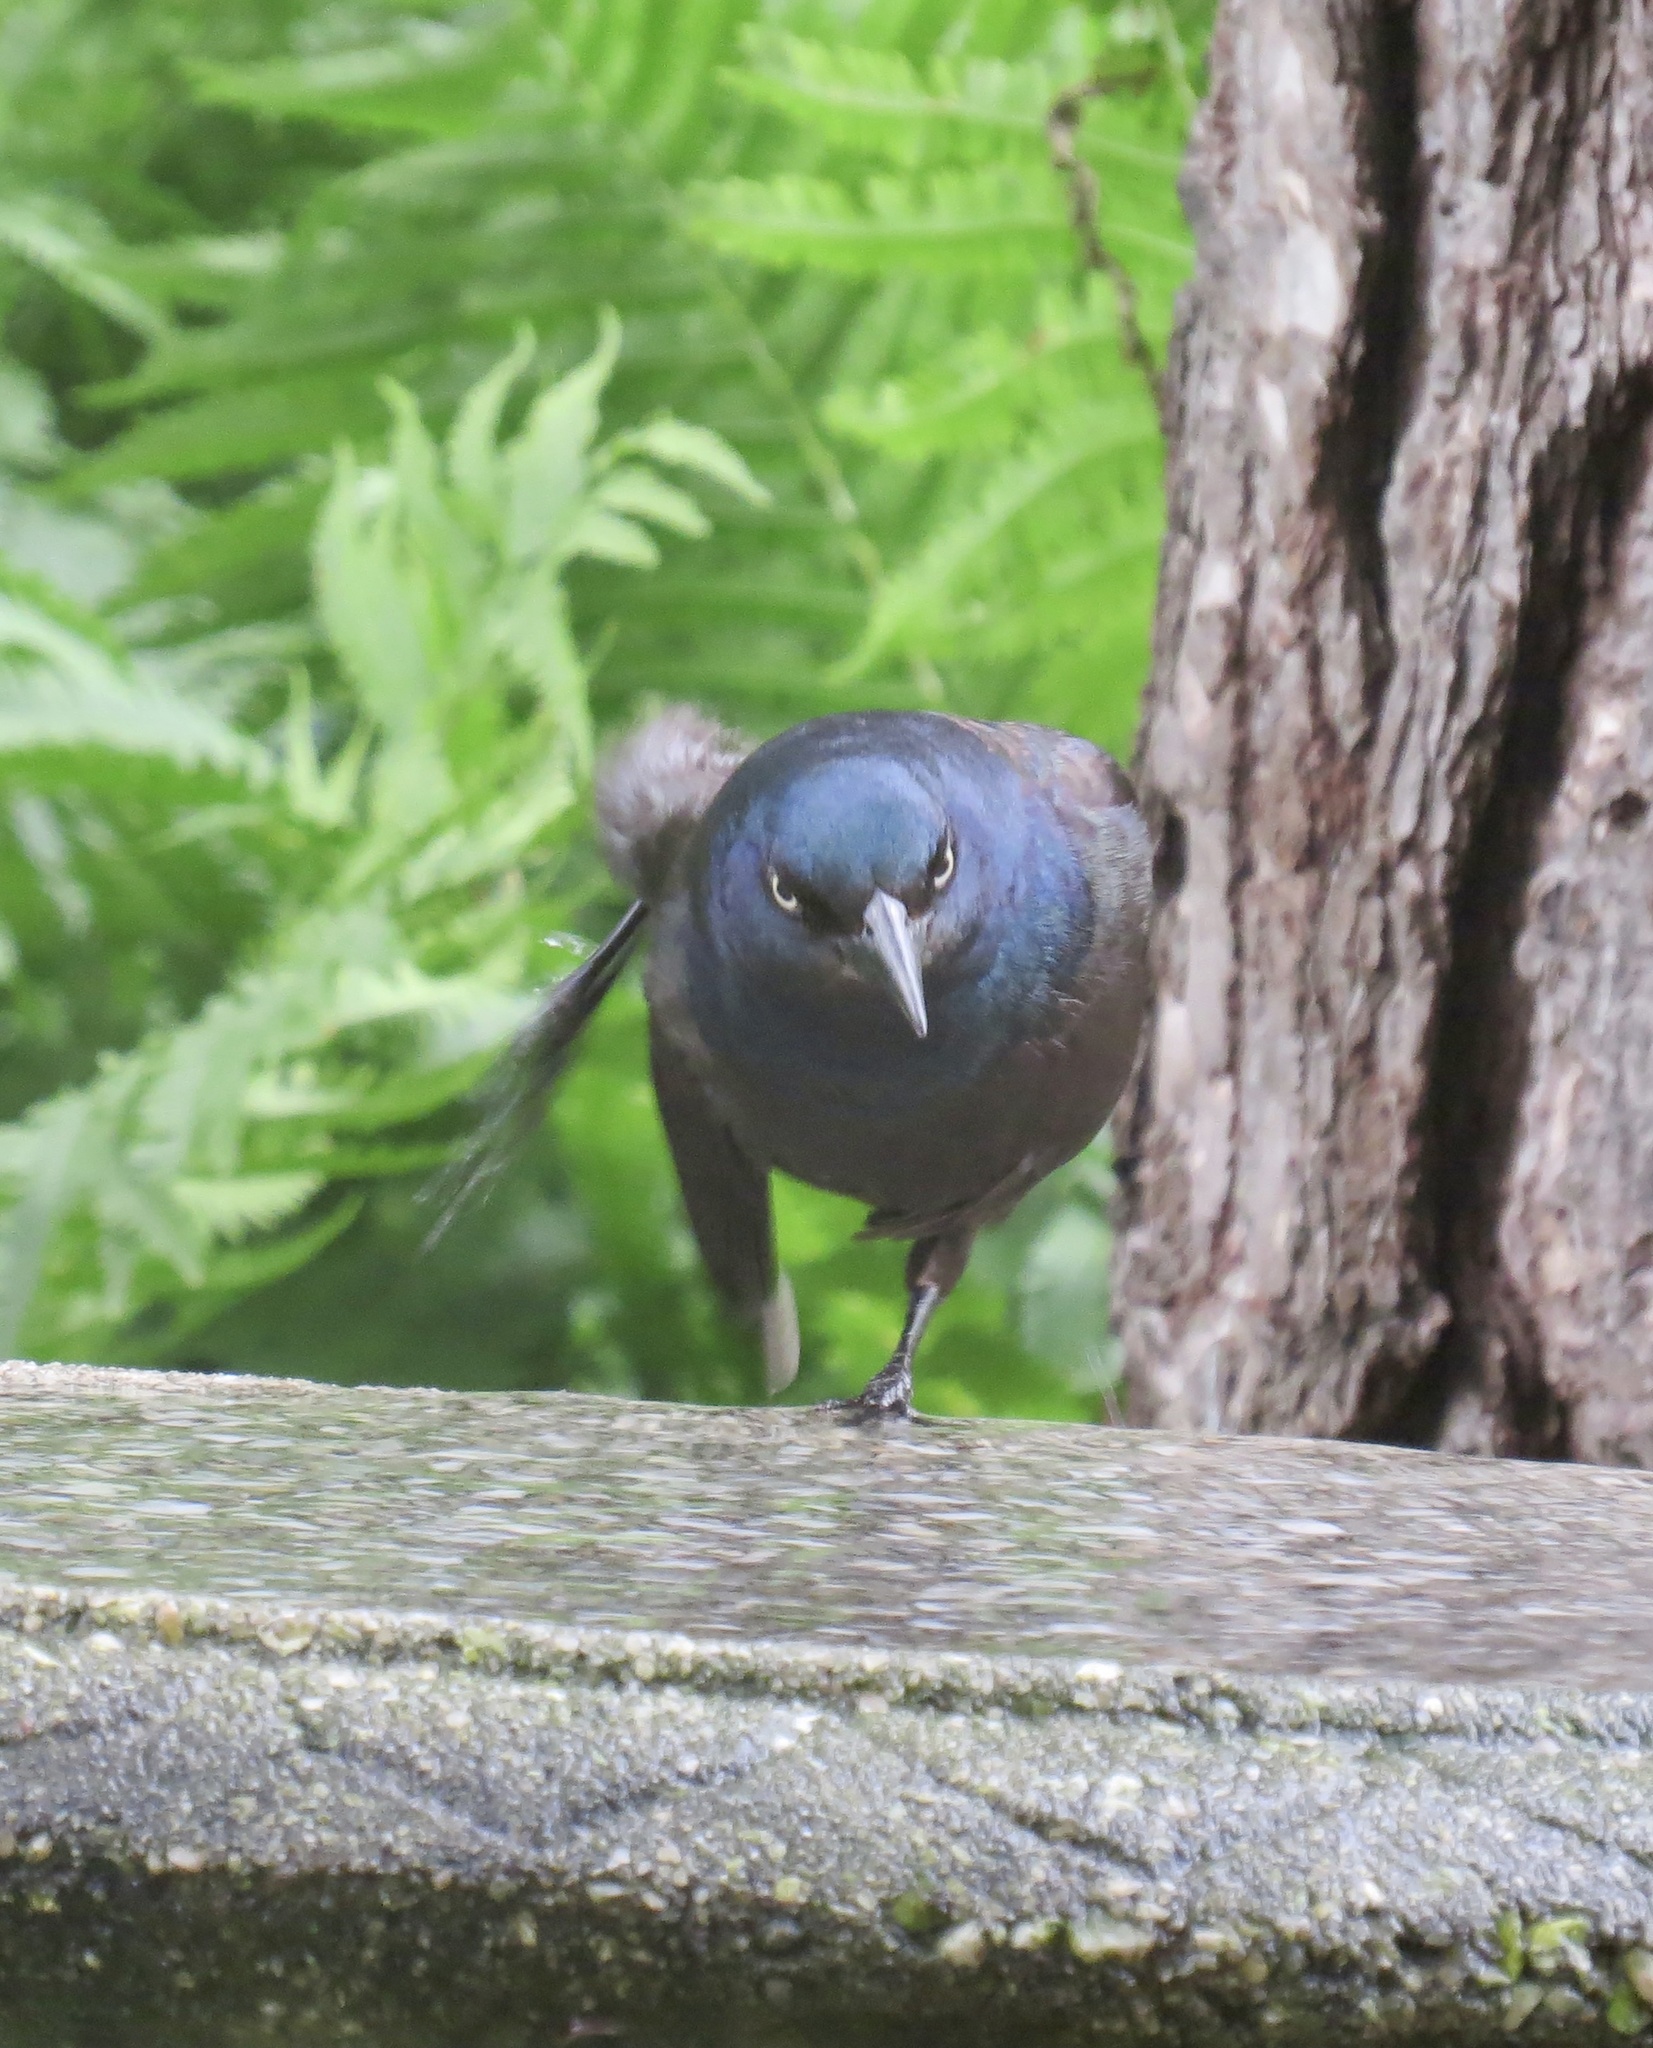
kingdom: Animalia
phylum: Chordata
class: Aves
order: Passeriformes
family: Icteridae
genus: Quiscalus
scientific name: Quiscalus quiscula
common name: Common grackle
